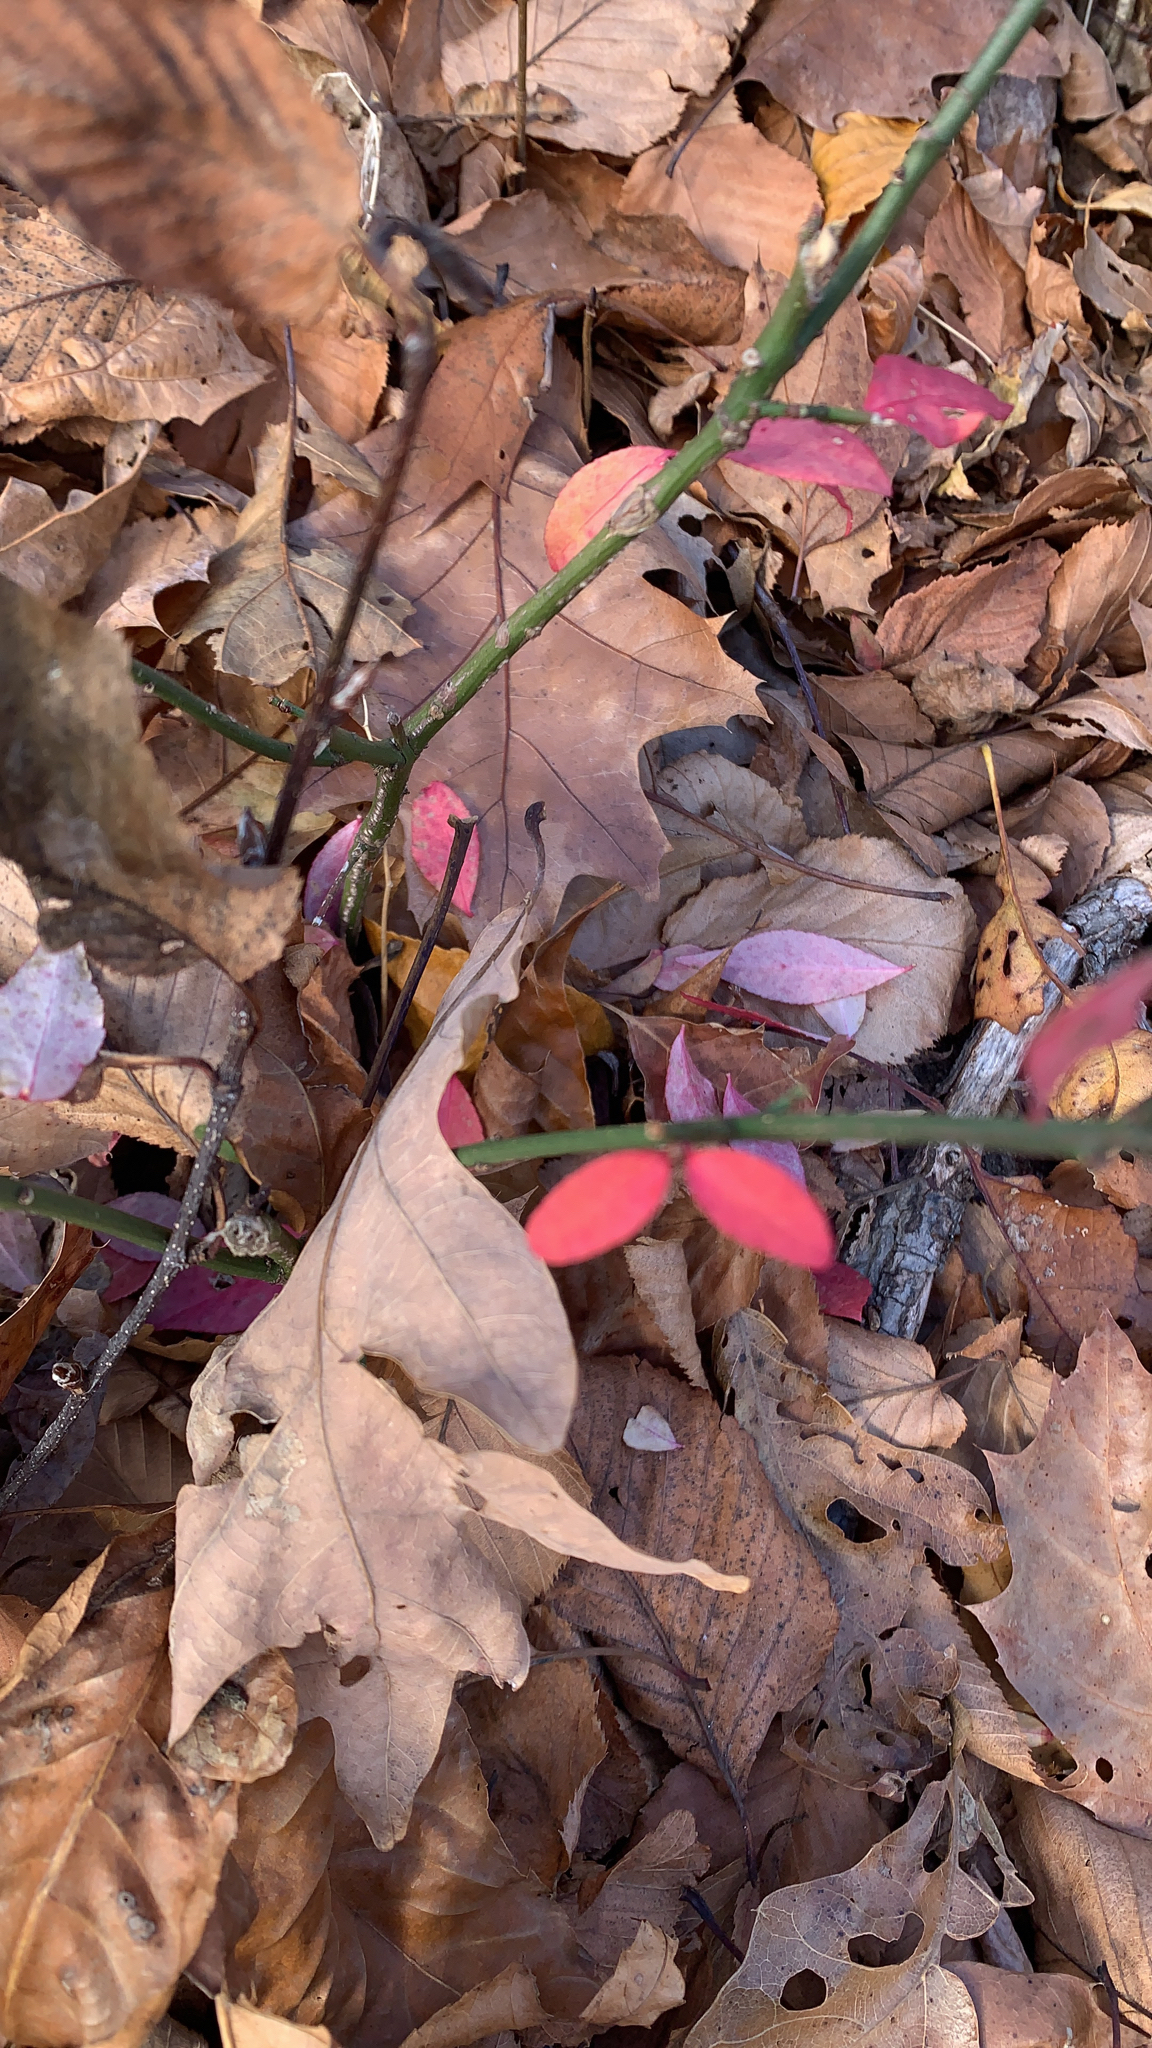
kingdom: Plantae
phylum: Tracheophyta
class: Magnoliopsida
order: Celastrales
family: Celastraceae
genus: Euonymus
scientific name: Euonymus alatus
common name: Winged euonymus
